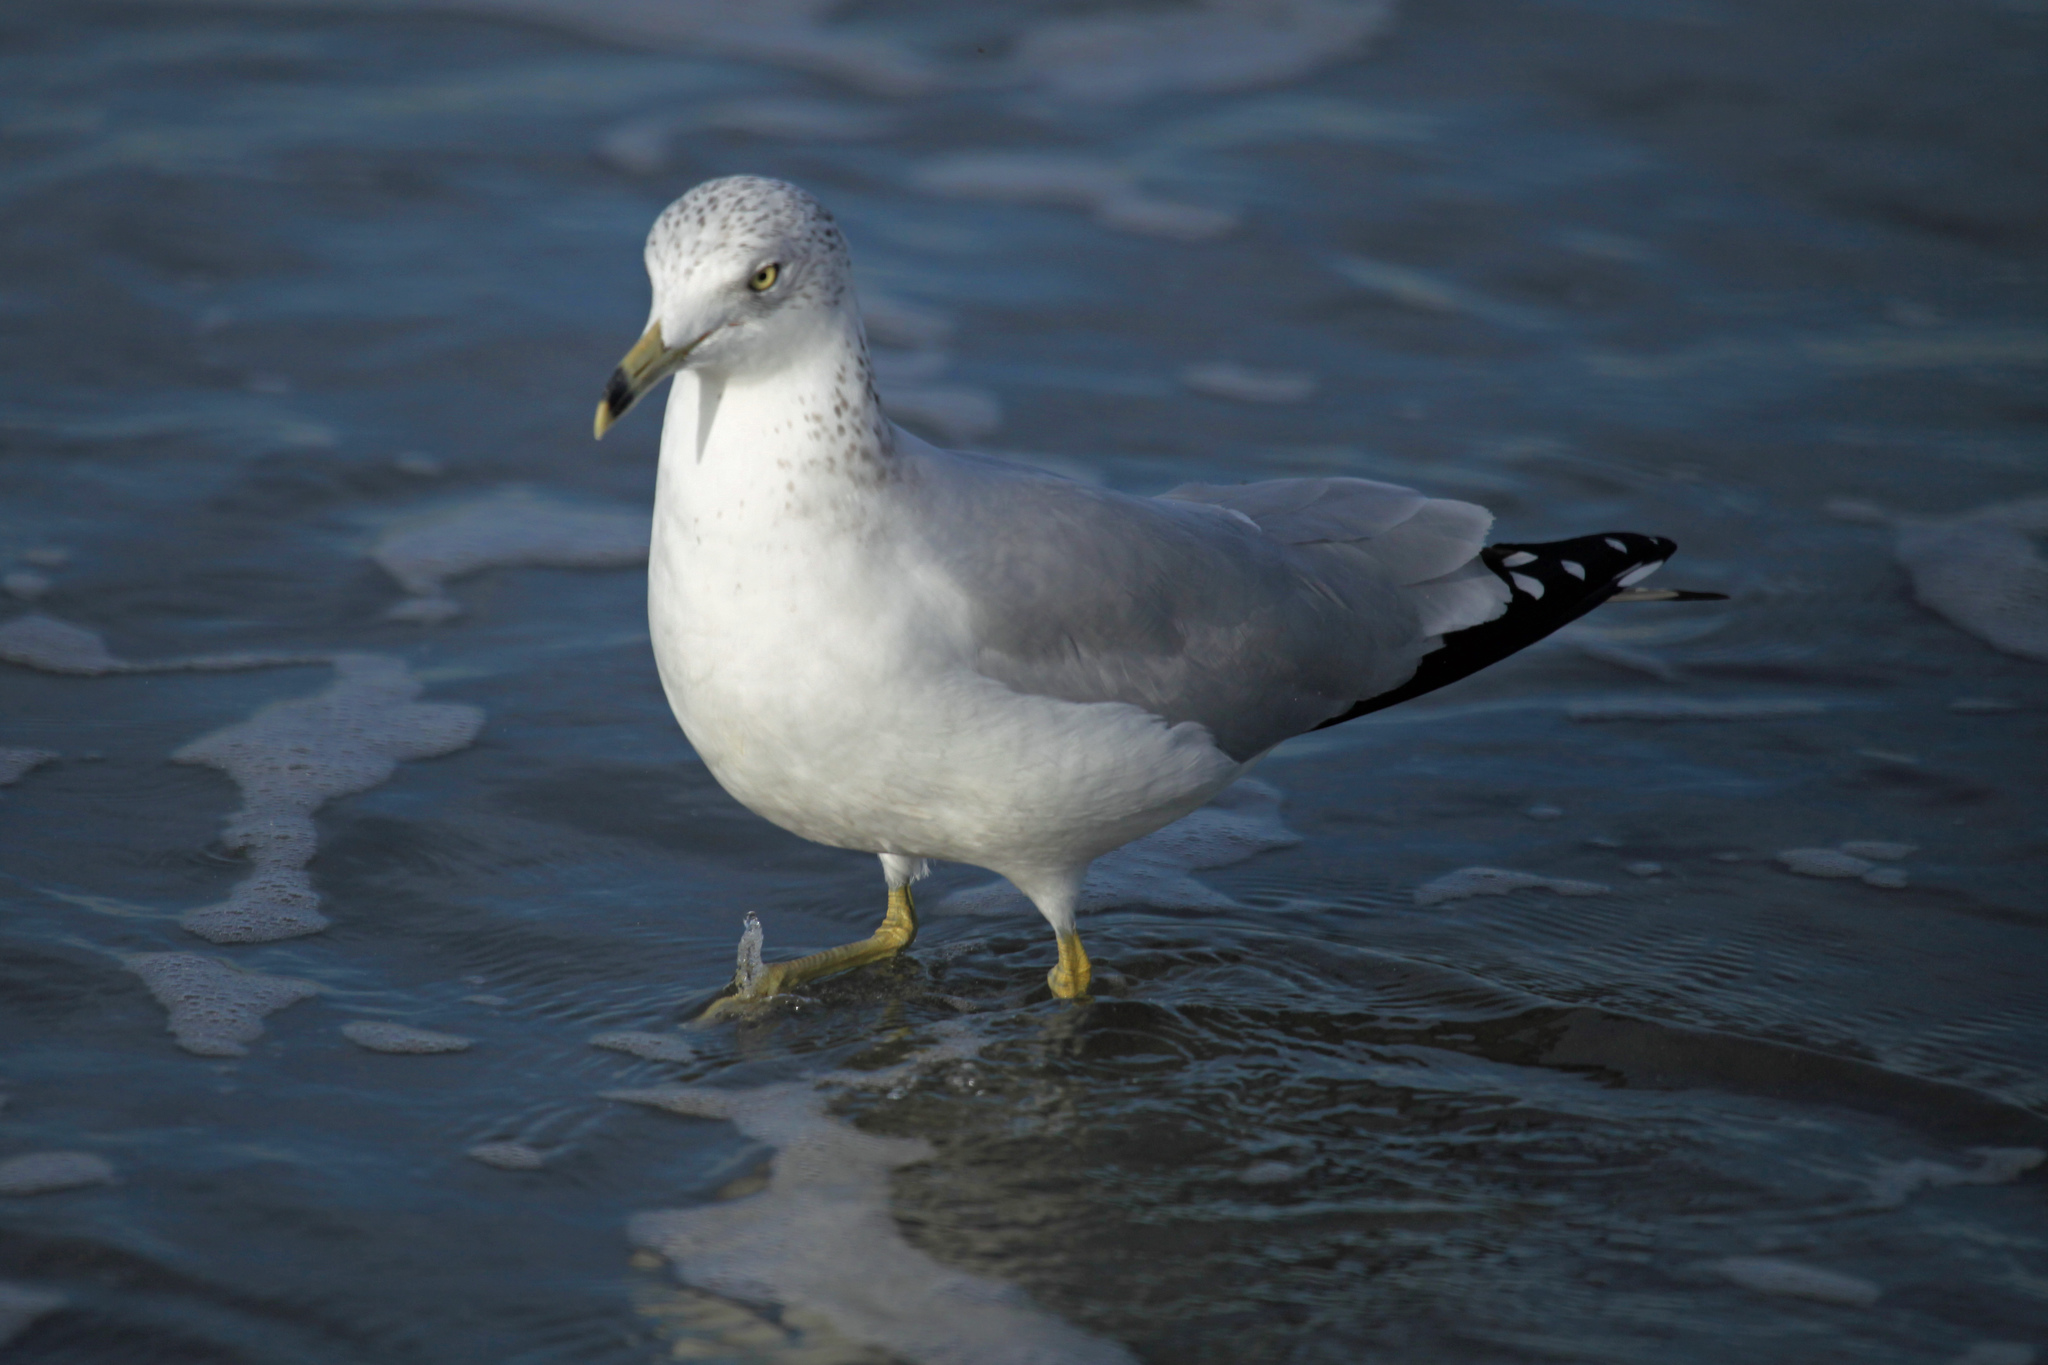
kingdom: Animalia
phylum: Chordata
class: Aves
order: Charadriiformes
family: Laridae
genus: Larus
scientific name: Larus delawarensis
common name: Ring-billed gull
